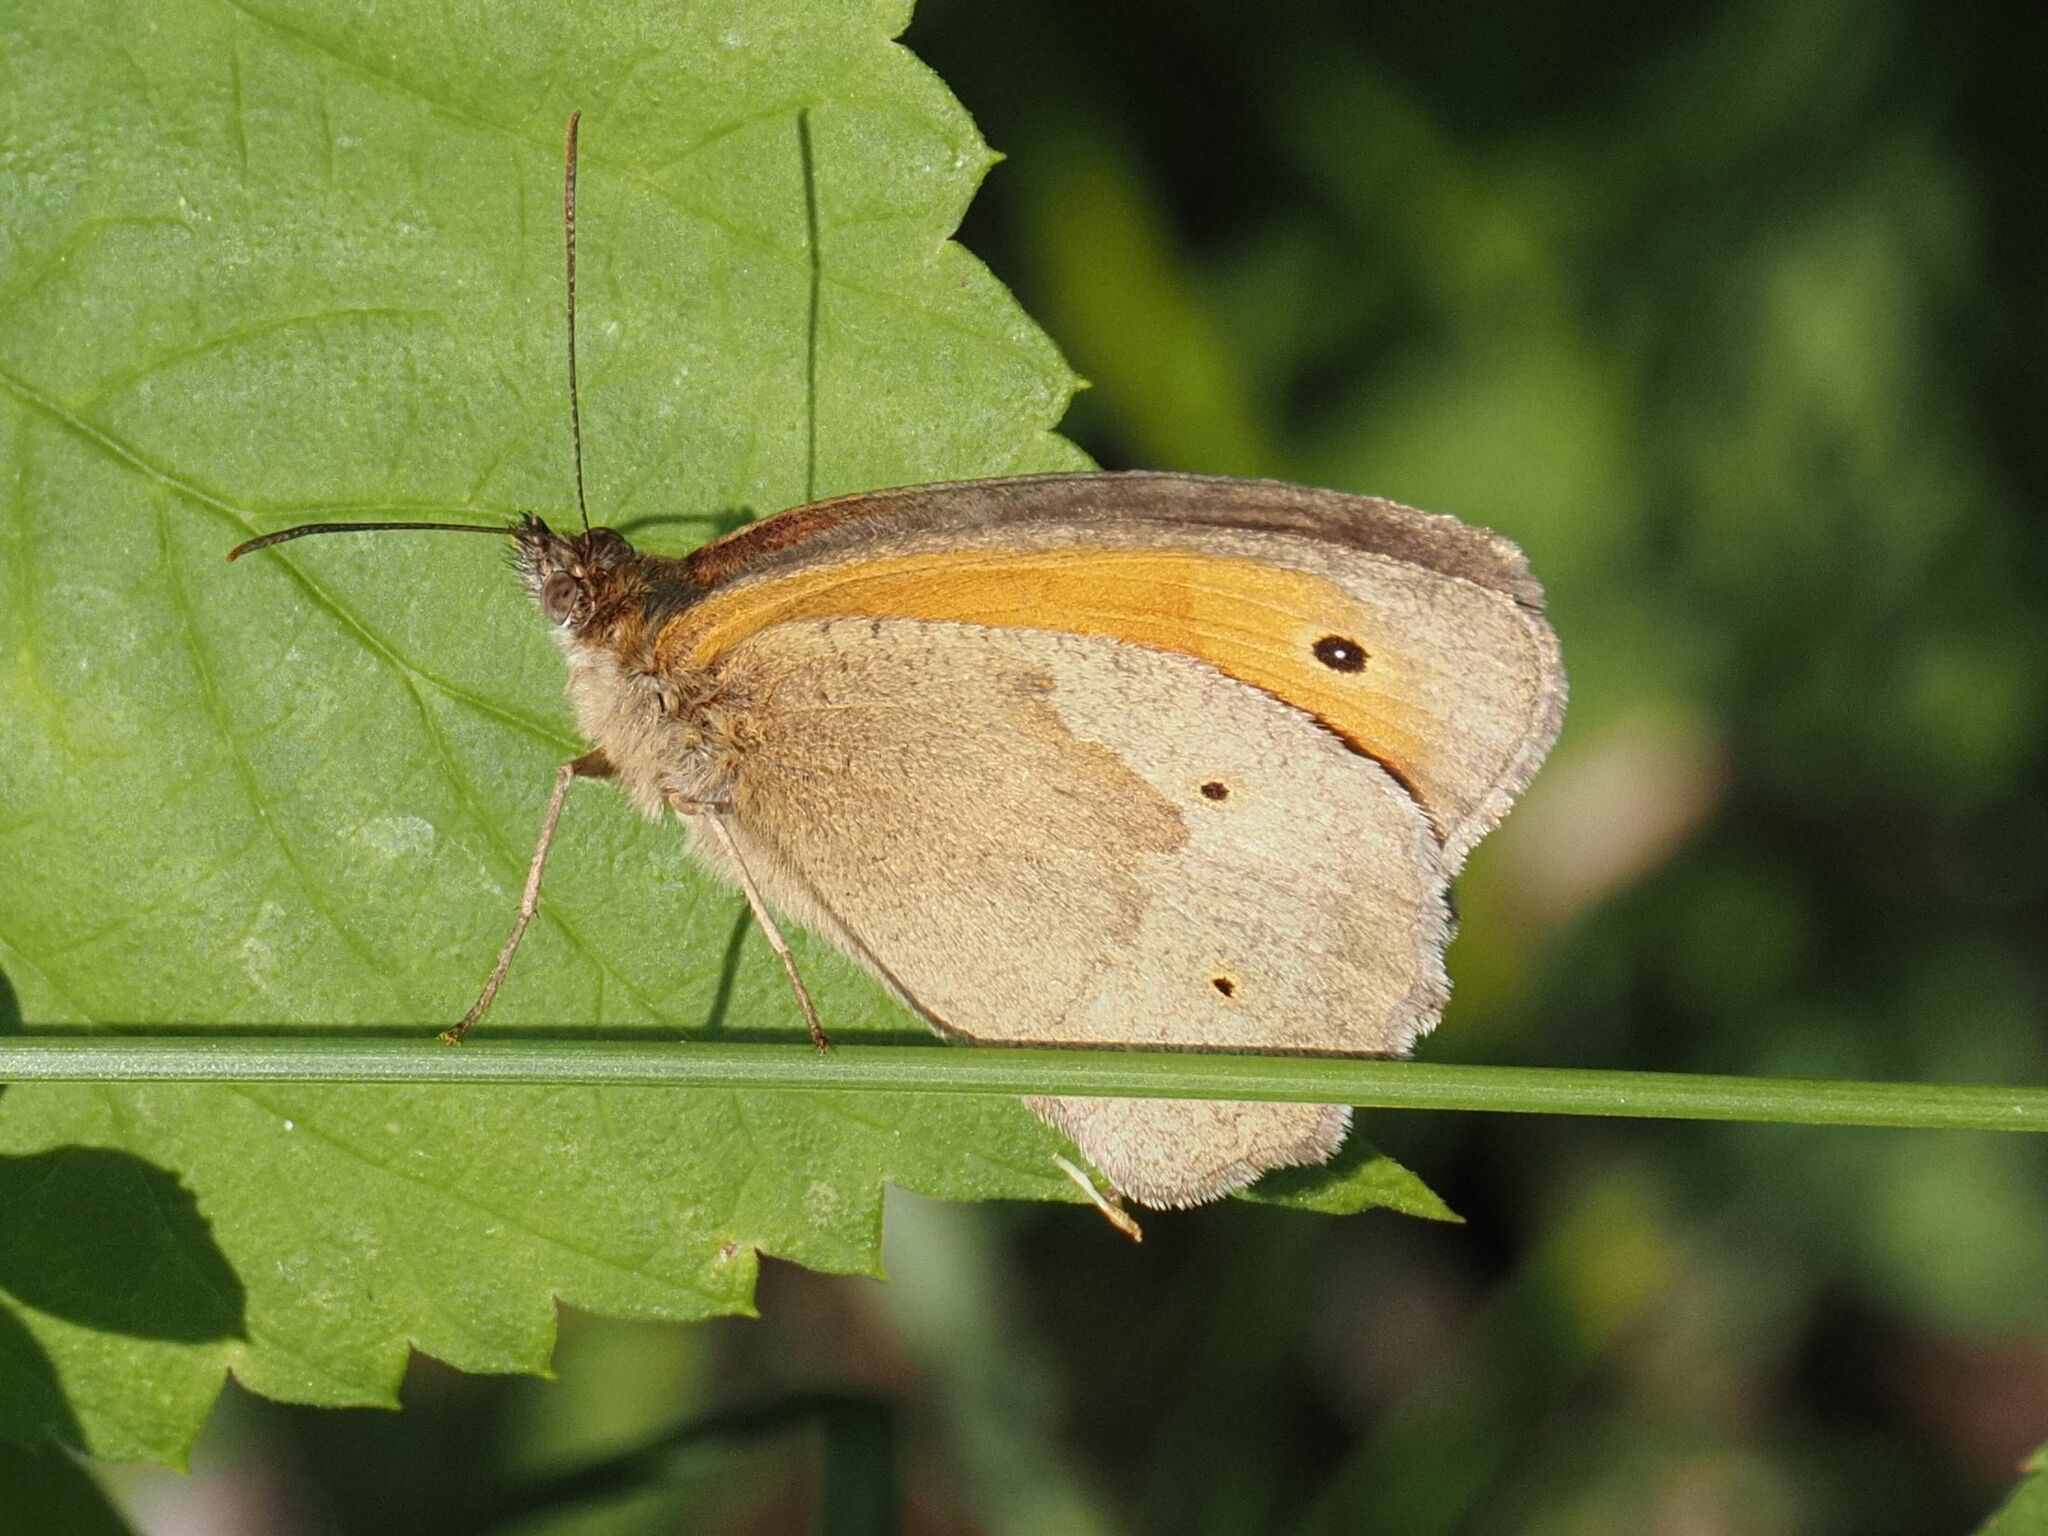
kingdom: Animalia
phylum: Arthropoda
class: Insecta
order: Lepidoptera
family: Nymphalidae
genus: Maniola
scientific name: Maniola jurtina
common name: Meadow brown
